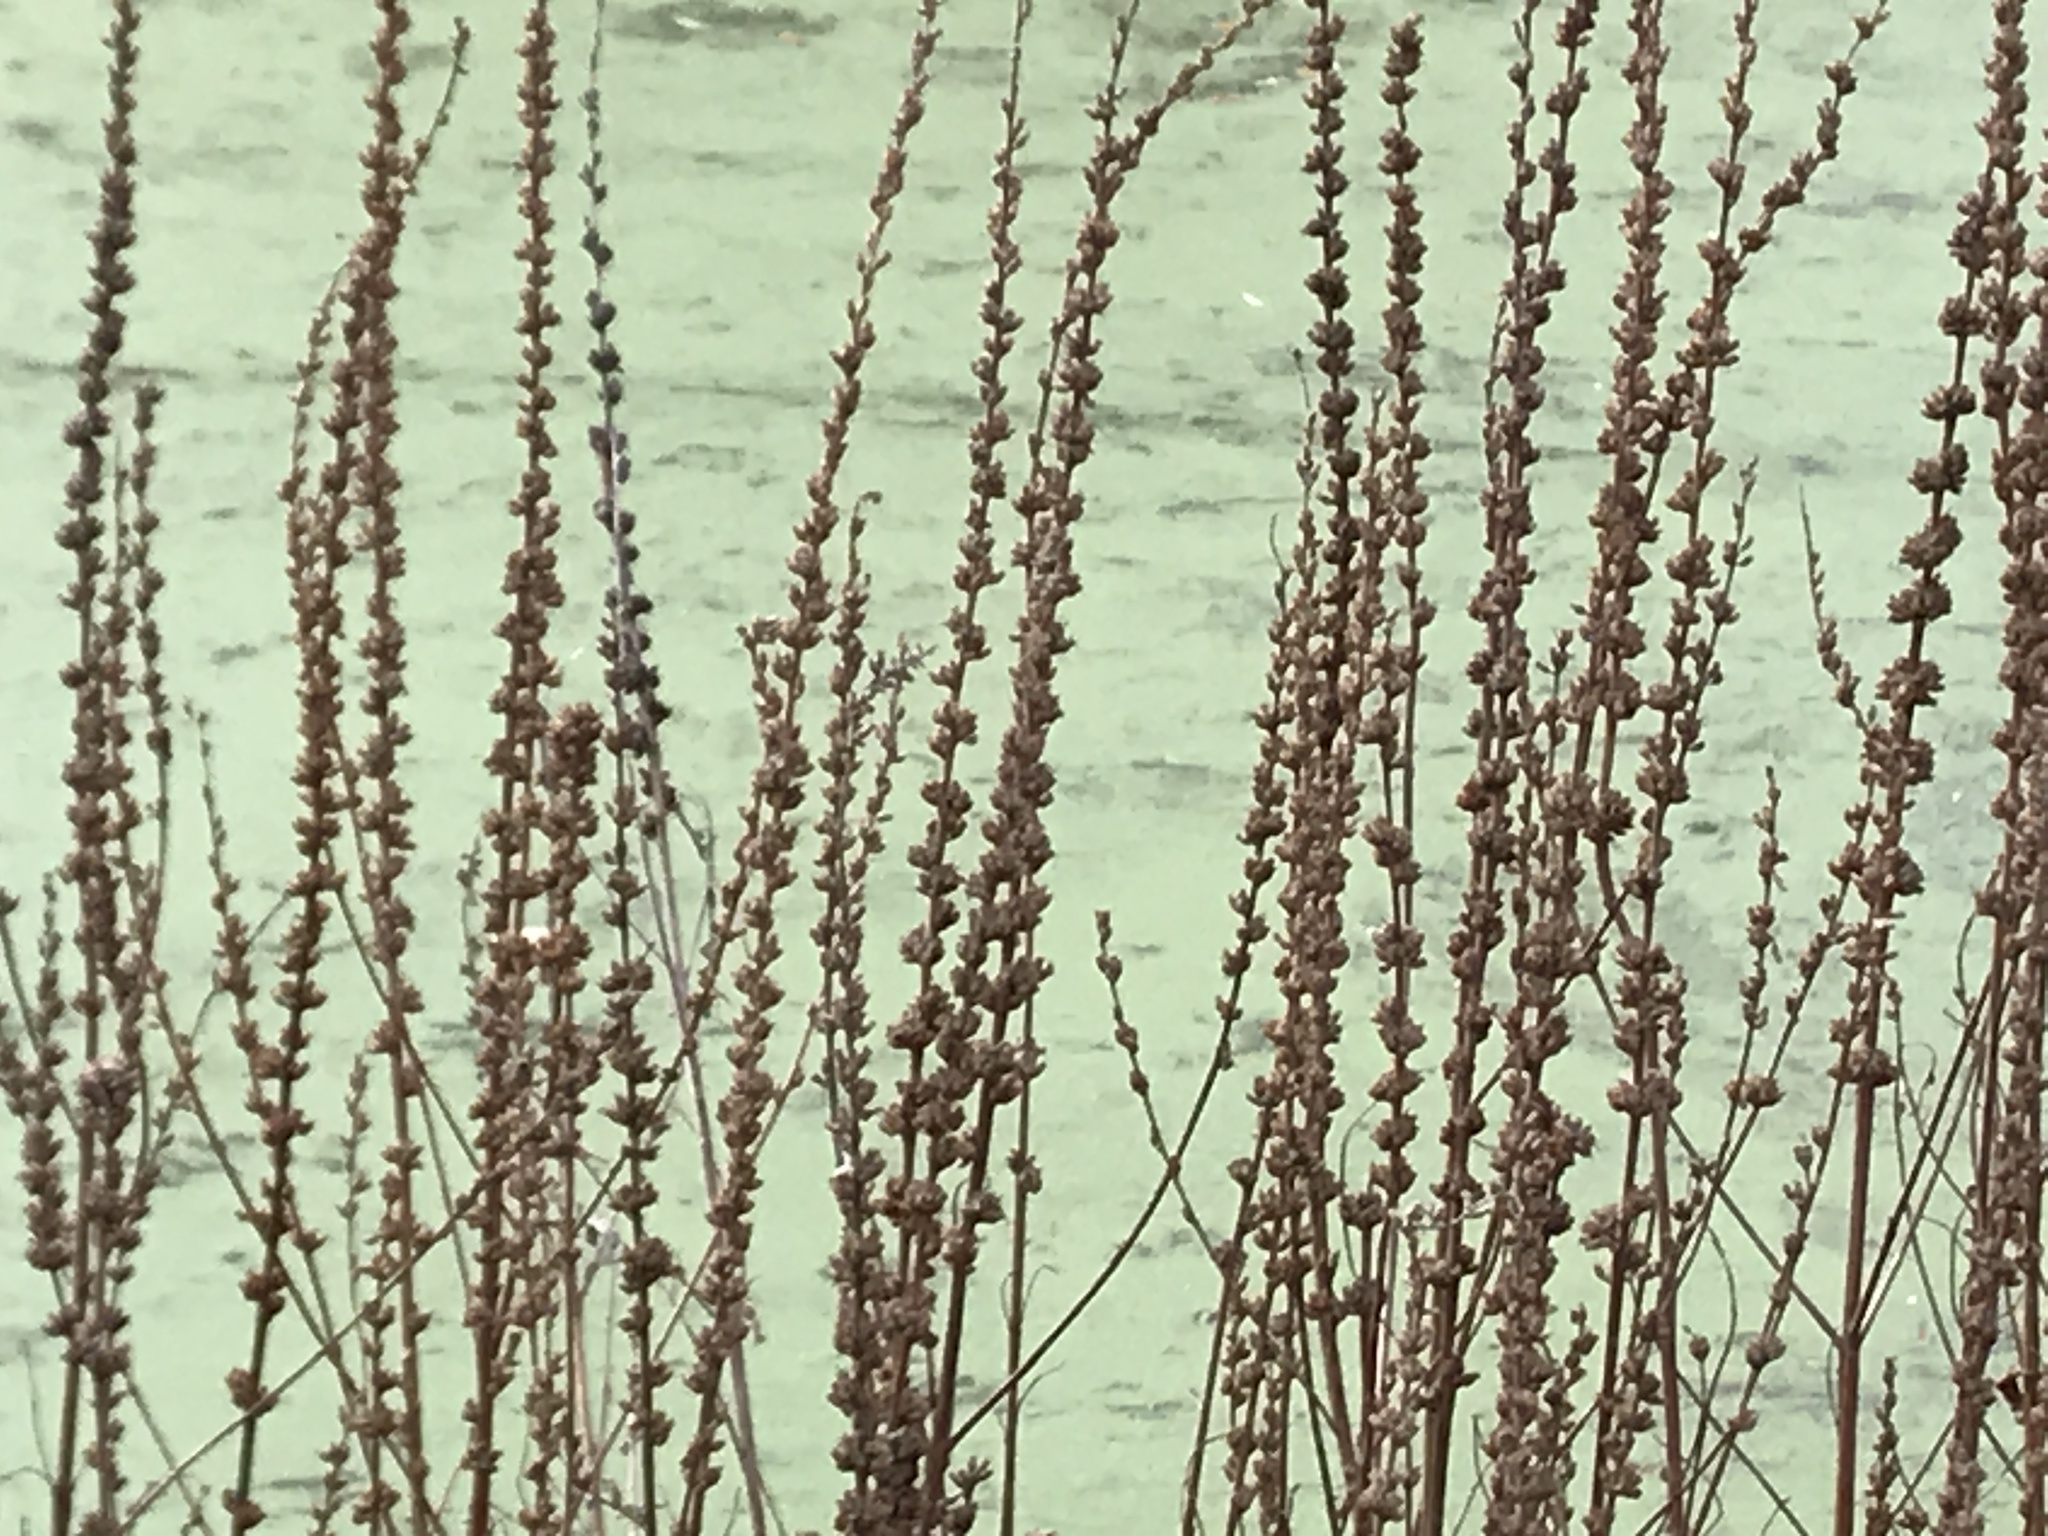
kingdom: Plantae
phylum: Tracheophyta
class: Magnoliopsida
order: Myrtales
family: Lythraceae
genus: Lythrum
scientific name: Lythrum salicaria
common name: Purple loosestrife
